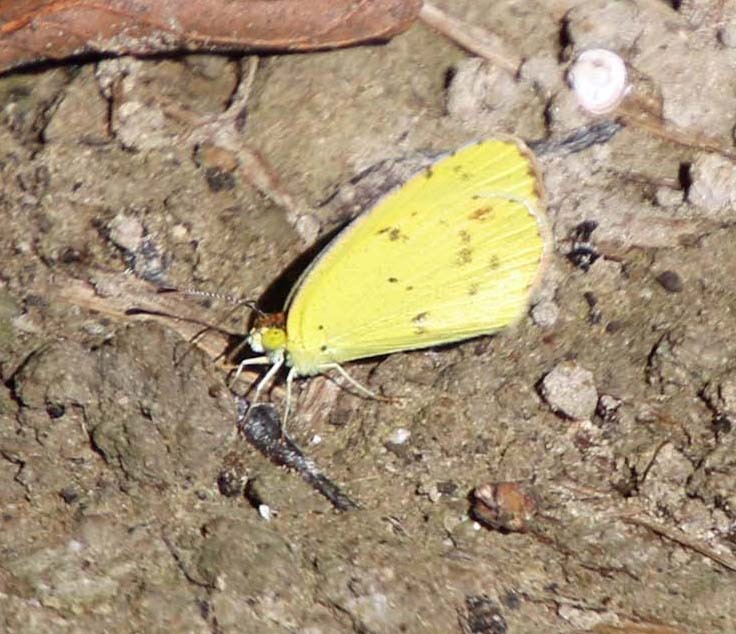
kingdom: Animalia
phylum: Arthropoda
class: Insecta
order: Lepidoptera
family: Pieridae
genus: Pyrisitia
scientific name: Pyrisitia lisa
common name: Little yellow
